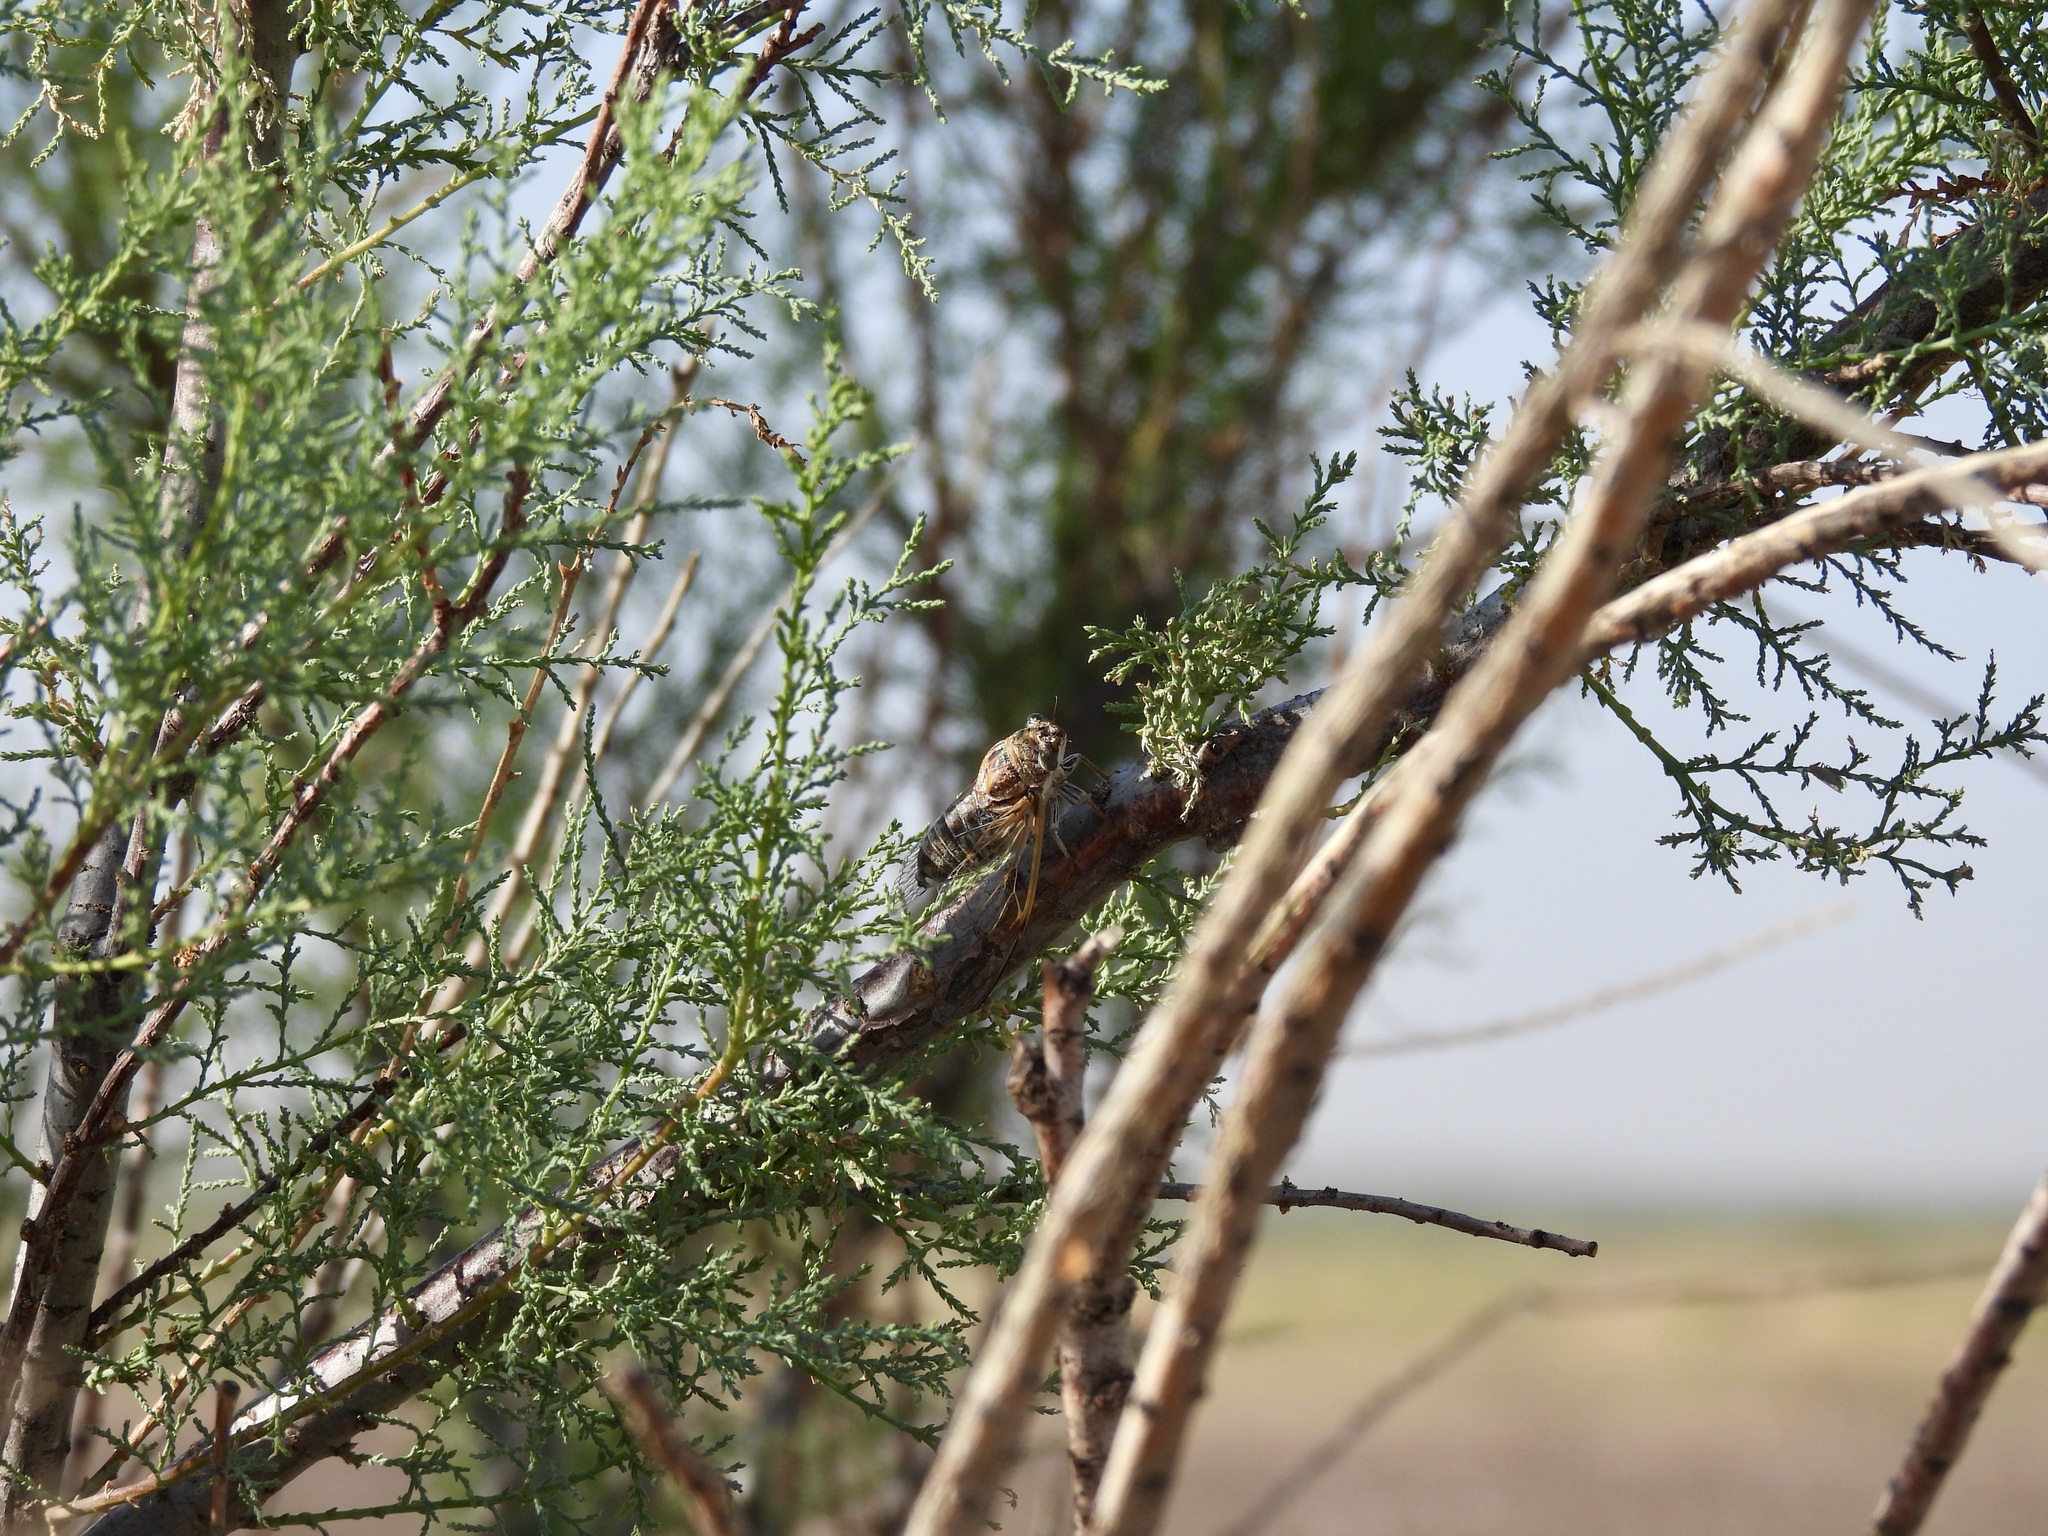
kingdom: Animalia
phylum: Arthropoda
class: Insecta
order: Hemiptera
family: Cicadidae
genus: Diceroprocta
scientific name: Diceroprocta eugraphica
